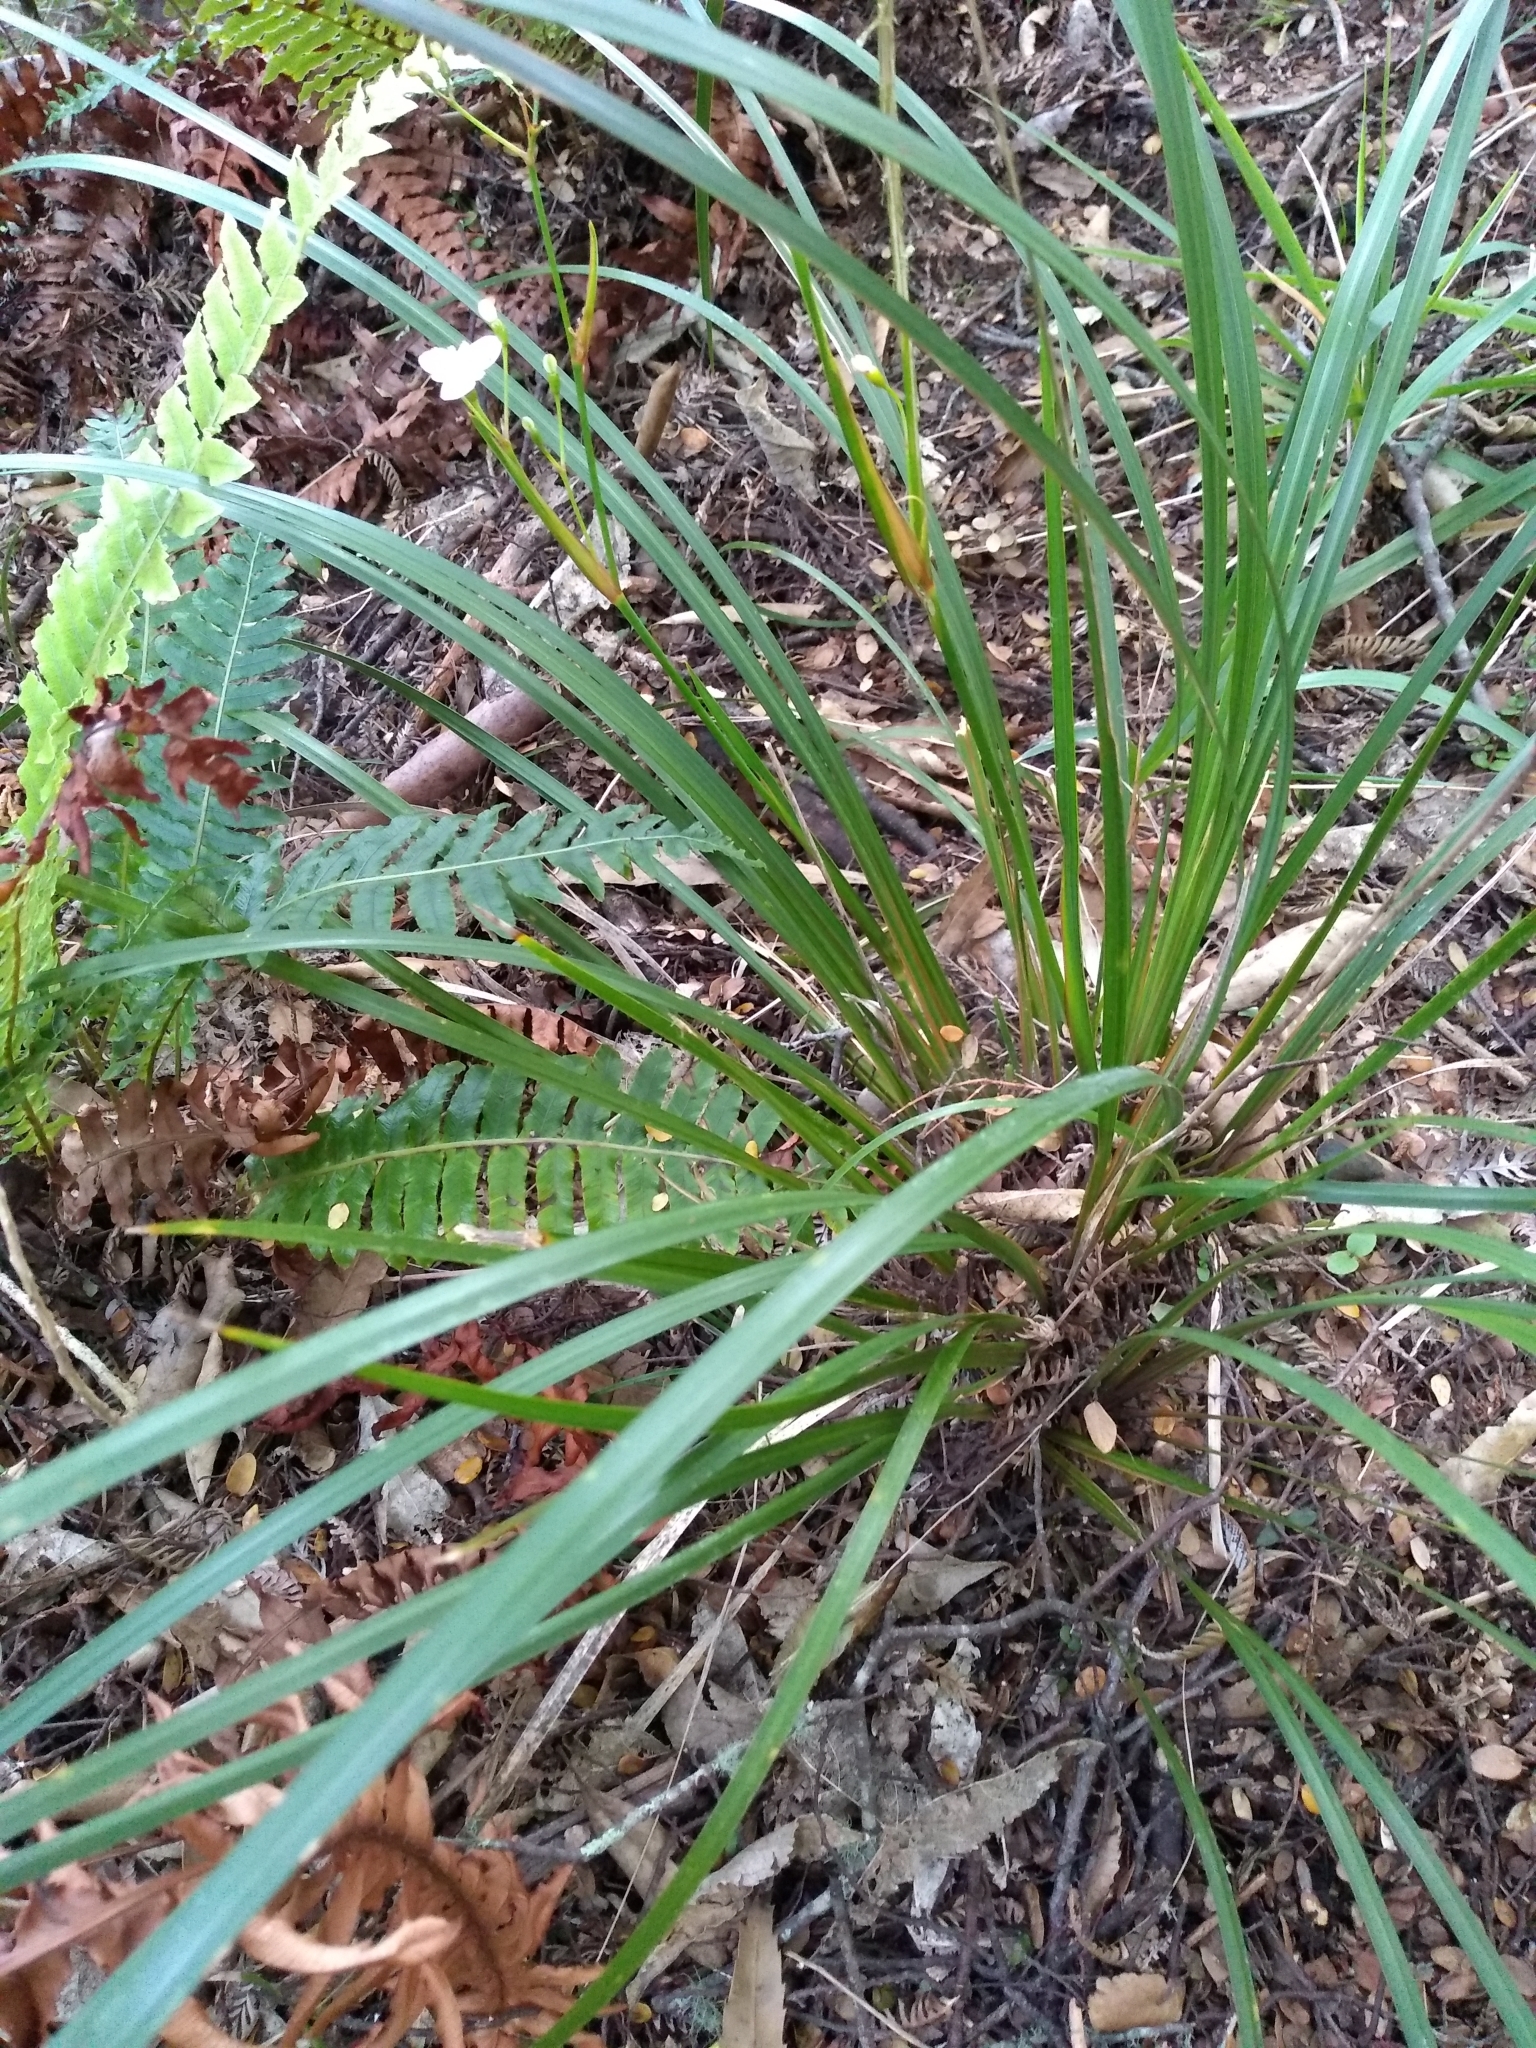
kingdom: Plantae
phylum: Tracheophyta
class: Liliopsida
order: Asparagales
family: Iridaceae
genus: Libertia
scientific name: Libertia ixioides
